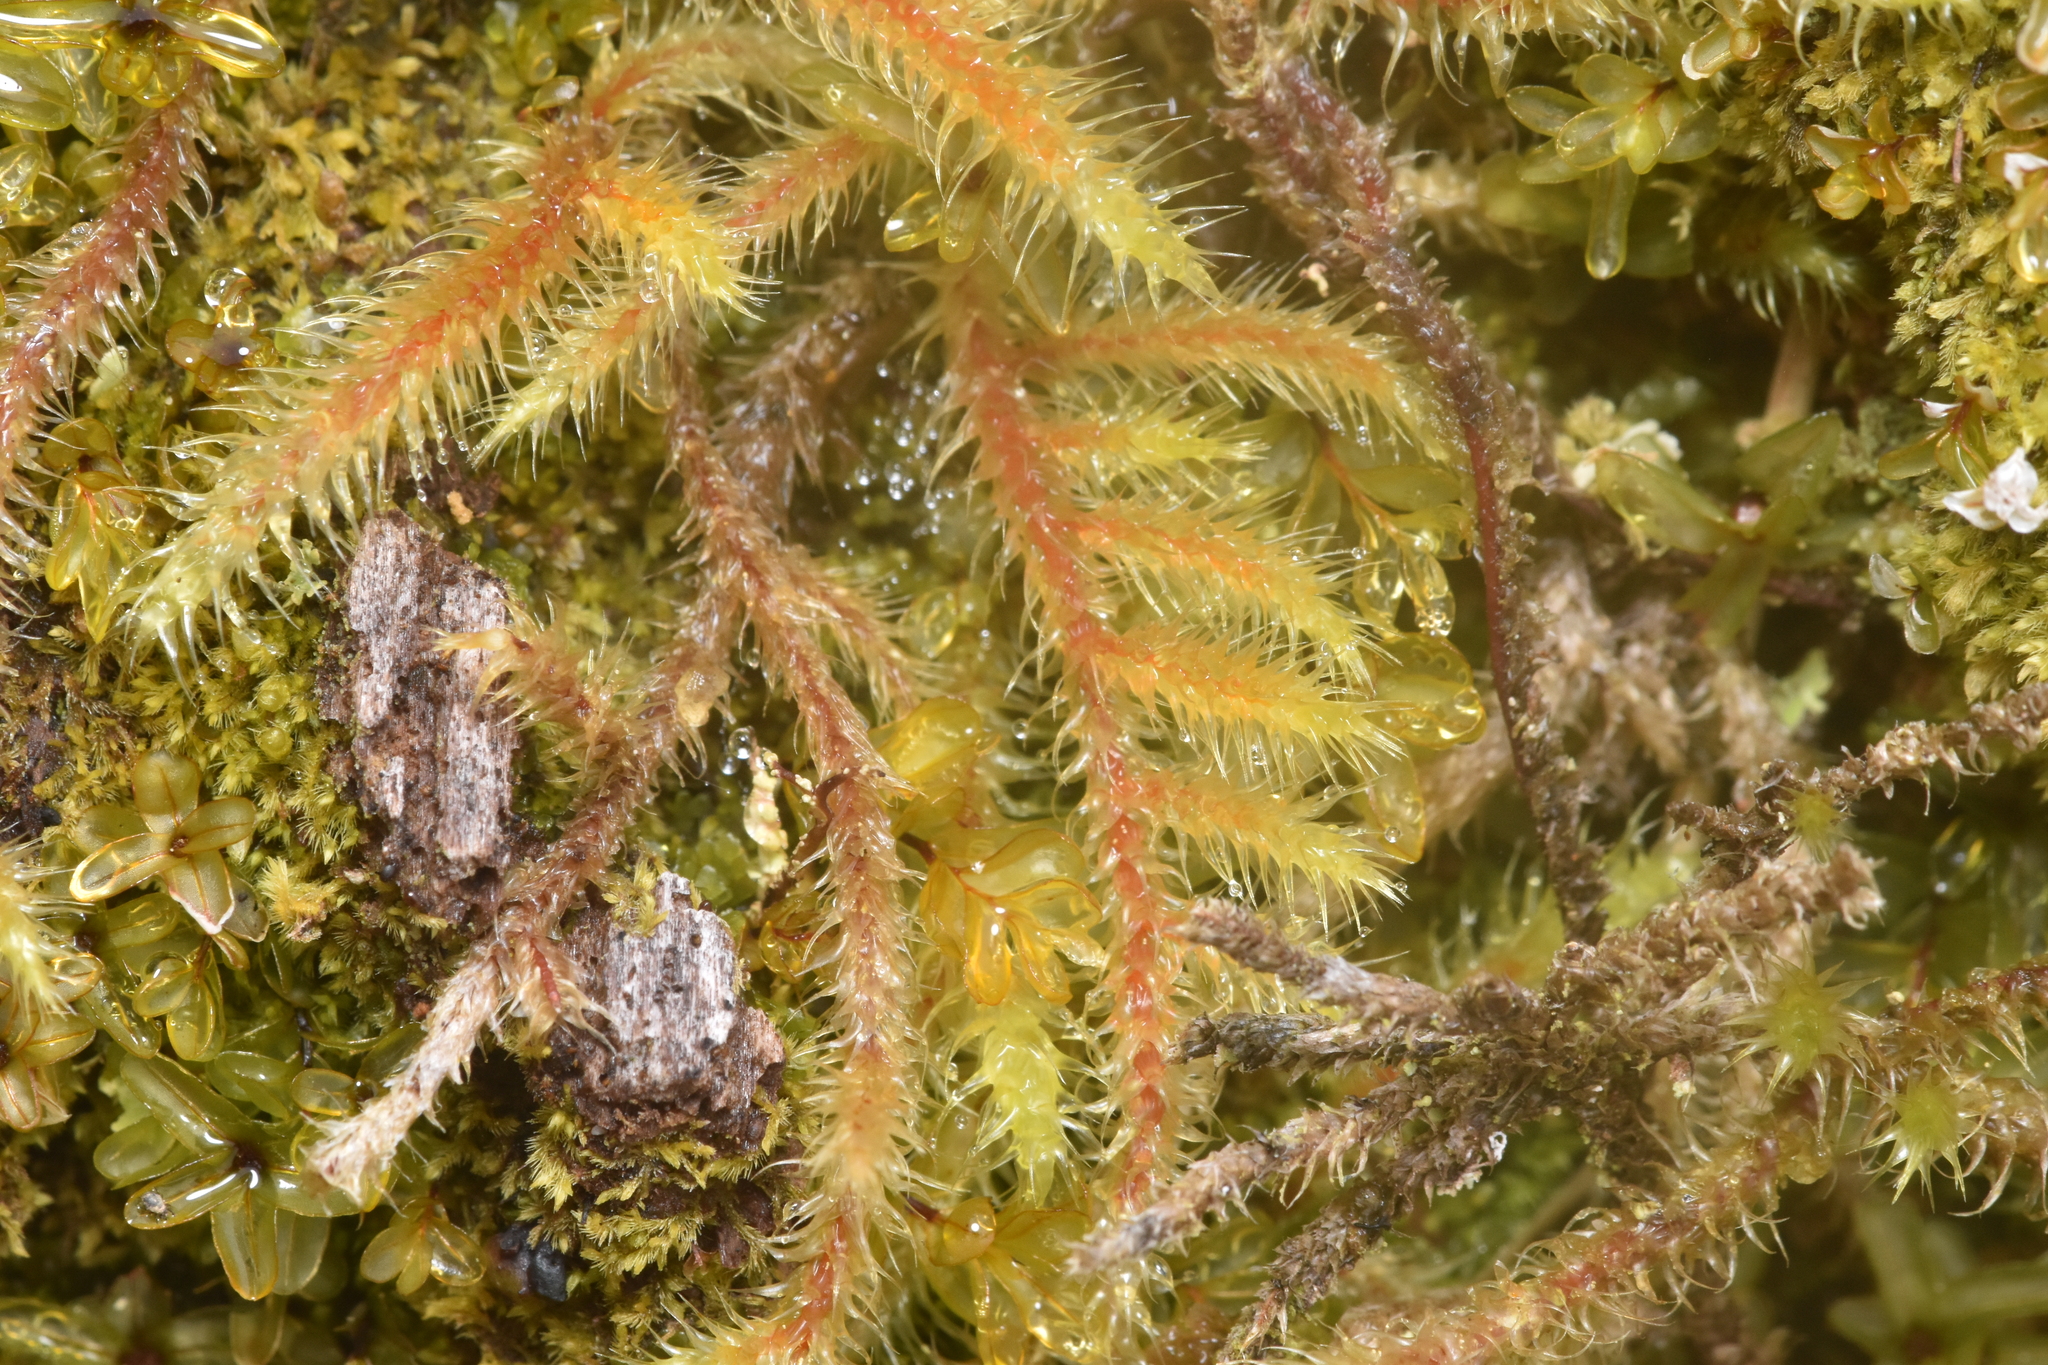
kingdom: Plantae
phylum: Bryophyta
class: Bryopsida
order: Hypnales
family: Hylocomiaceae
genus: Rhytidiadelphus
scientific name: Rhytidiadelphus loreus
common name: Lanky moss
